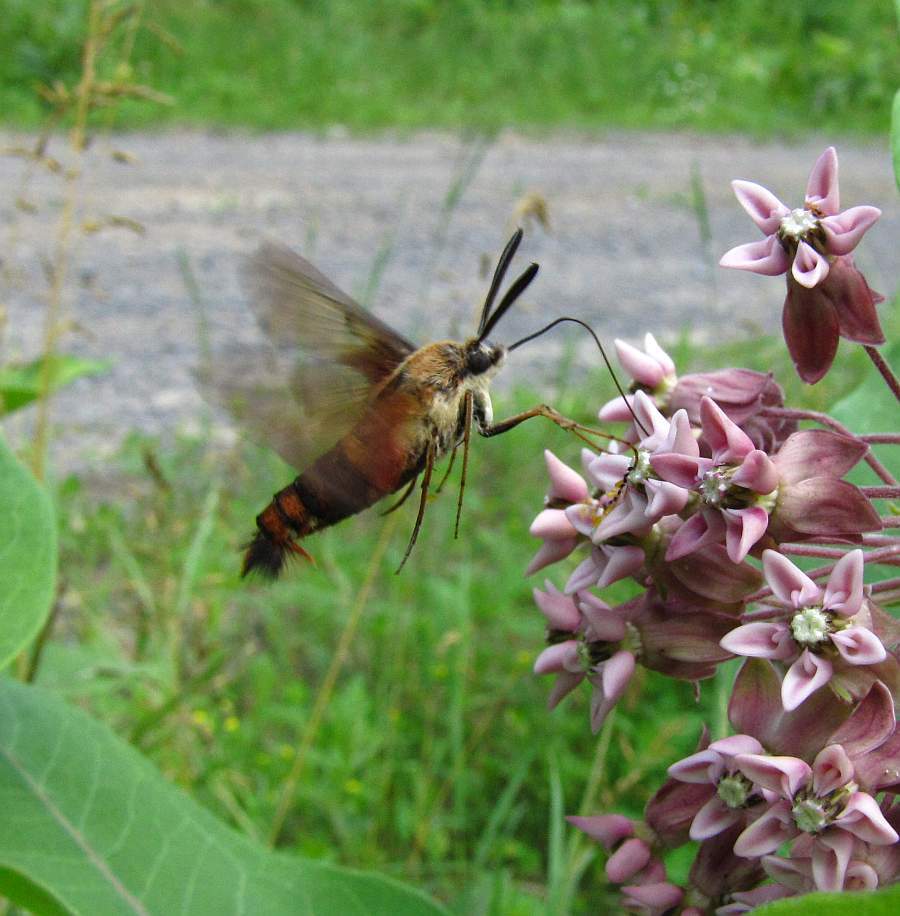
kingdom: Animalia
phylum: Arthropoda
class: Insecta
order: Lepidoptera
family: Sphingidae
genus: Hemaris
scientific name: Hemaris thysbe
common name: Common clear-wing
